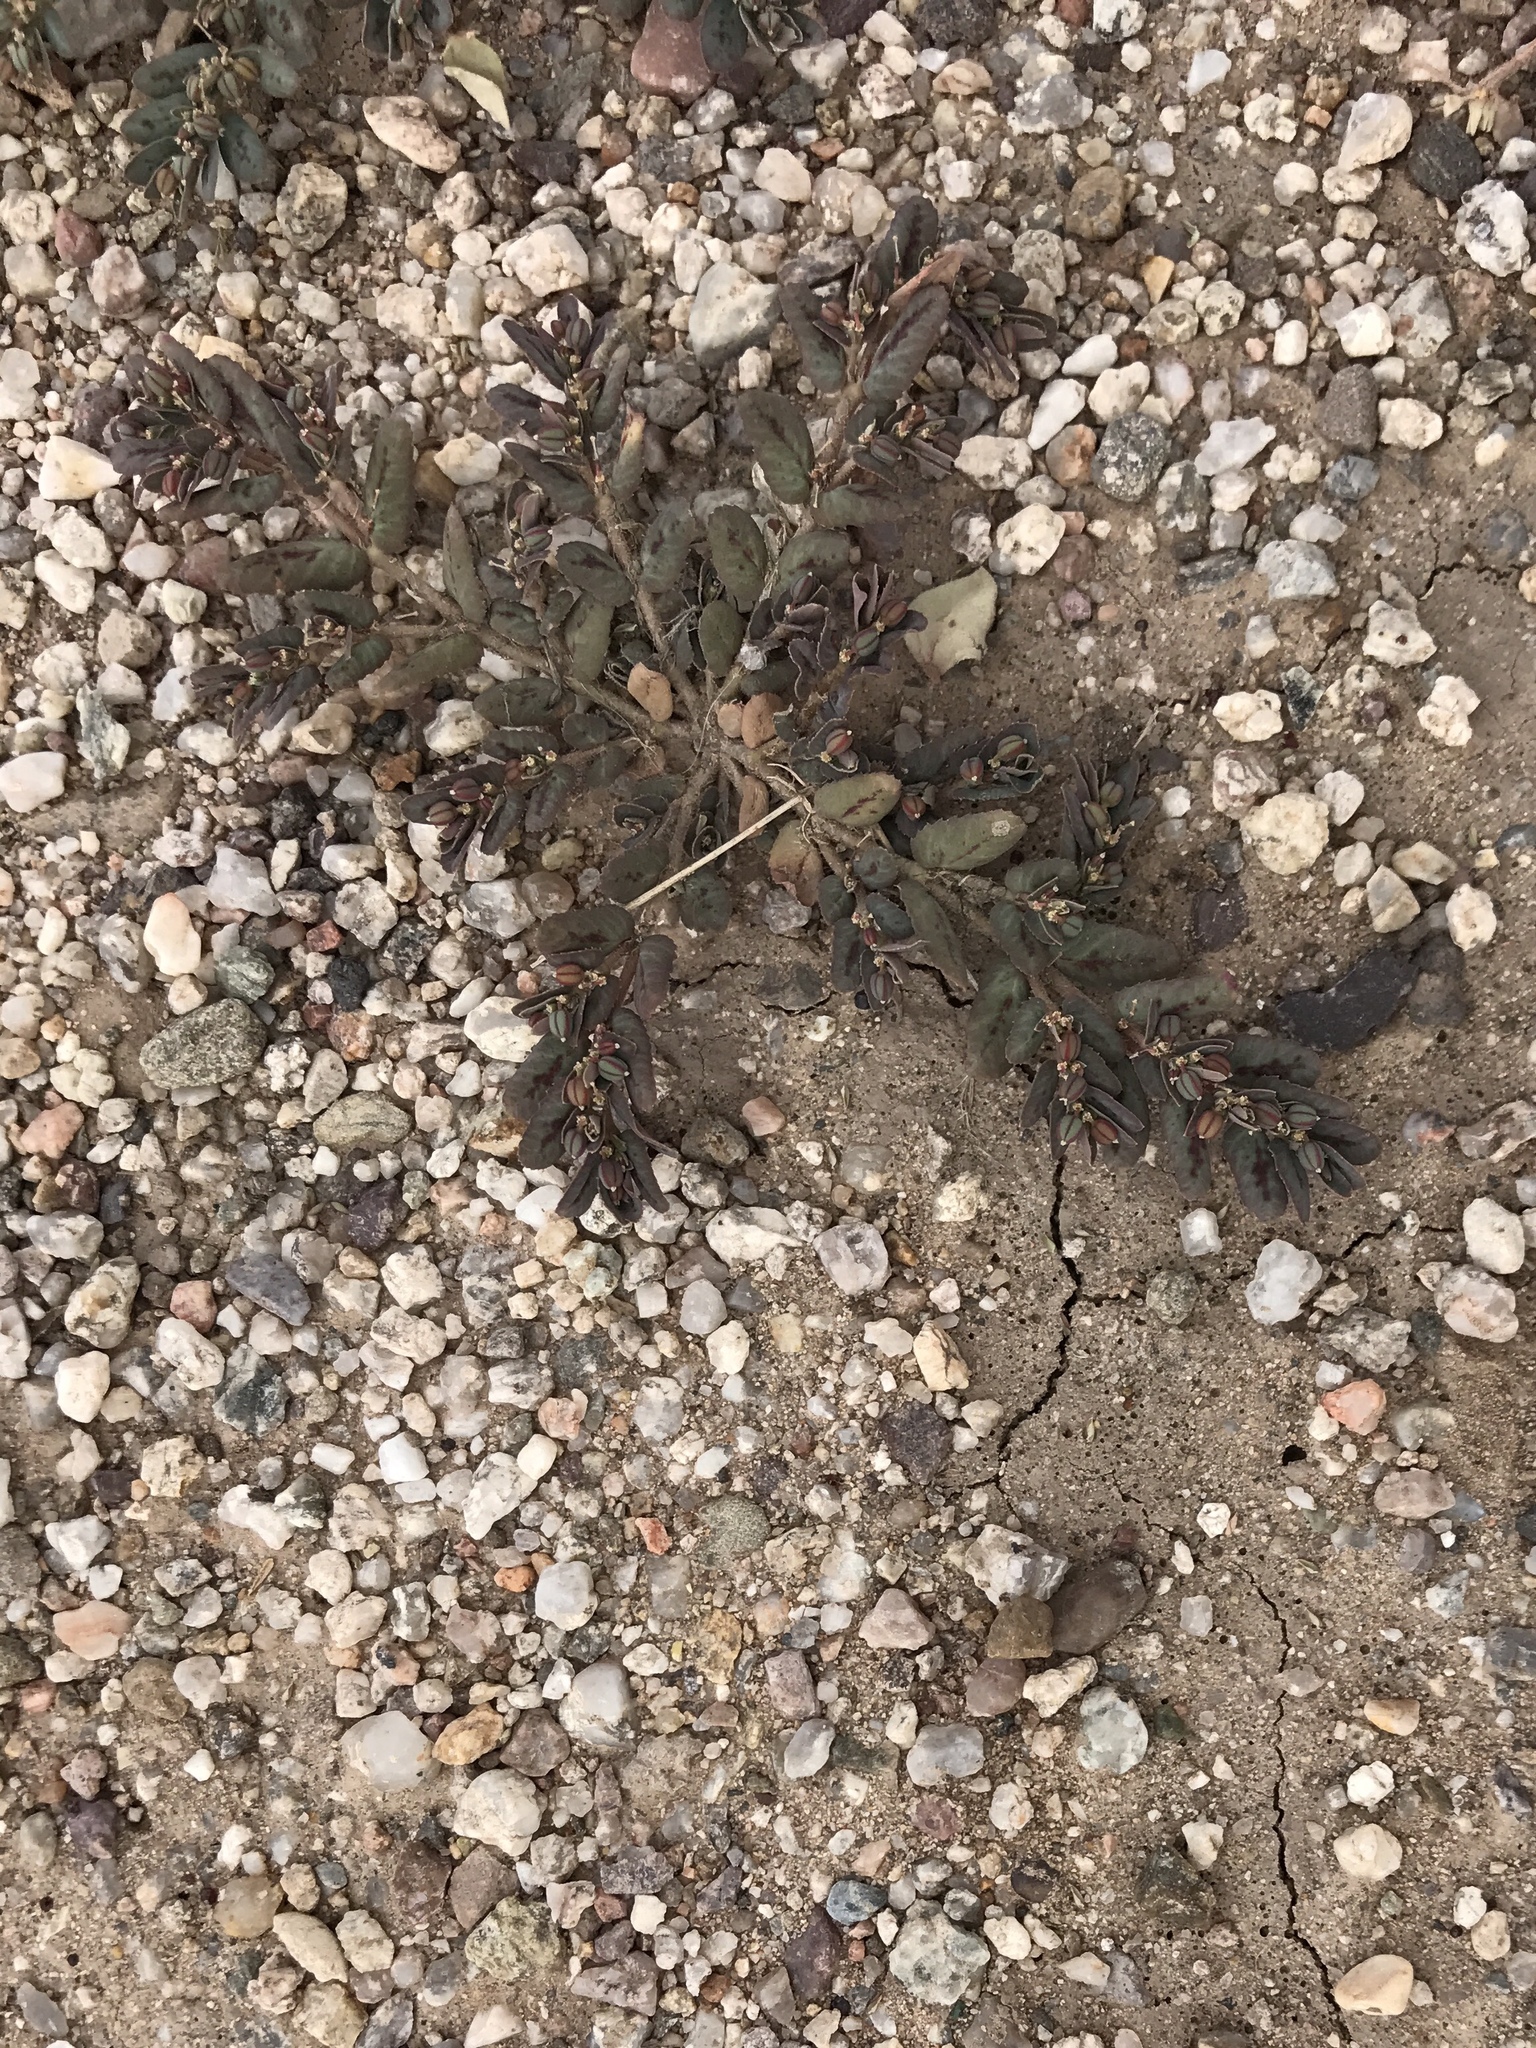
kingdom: Plantae
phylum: Tracheophyta
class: Magnoliopsida
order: Malpighiales
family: Euphorbiaceae
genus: Euphorbia
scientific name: Euphorbia abramsiana
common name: Abram's spurge
